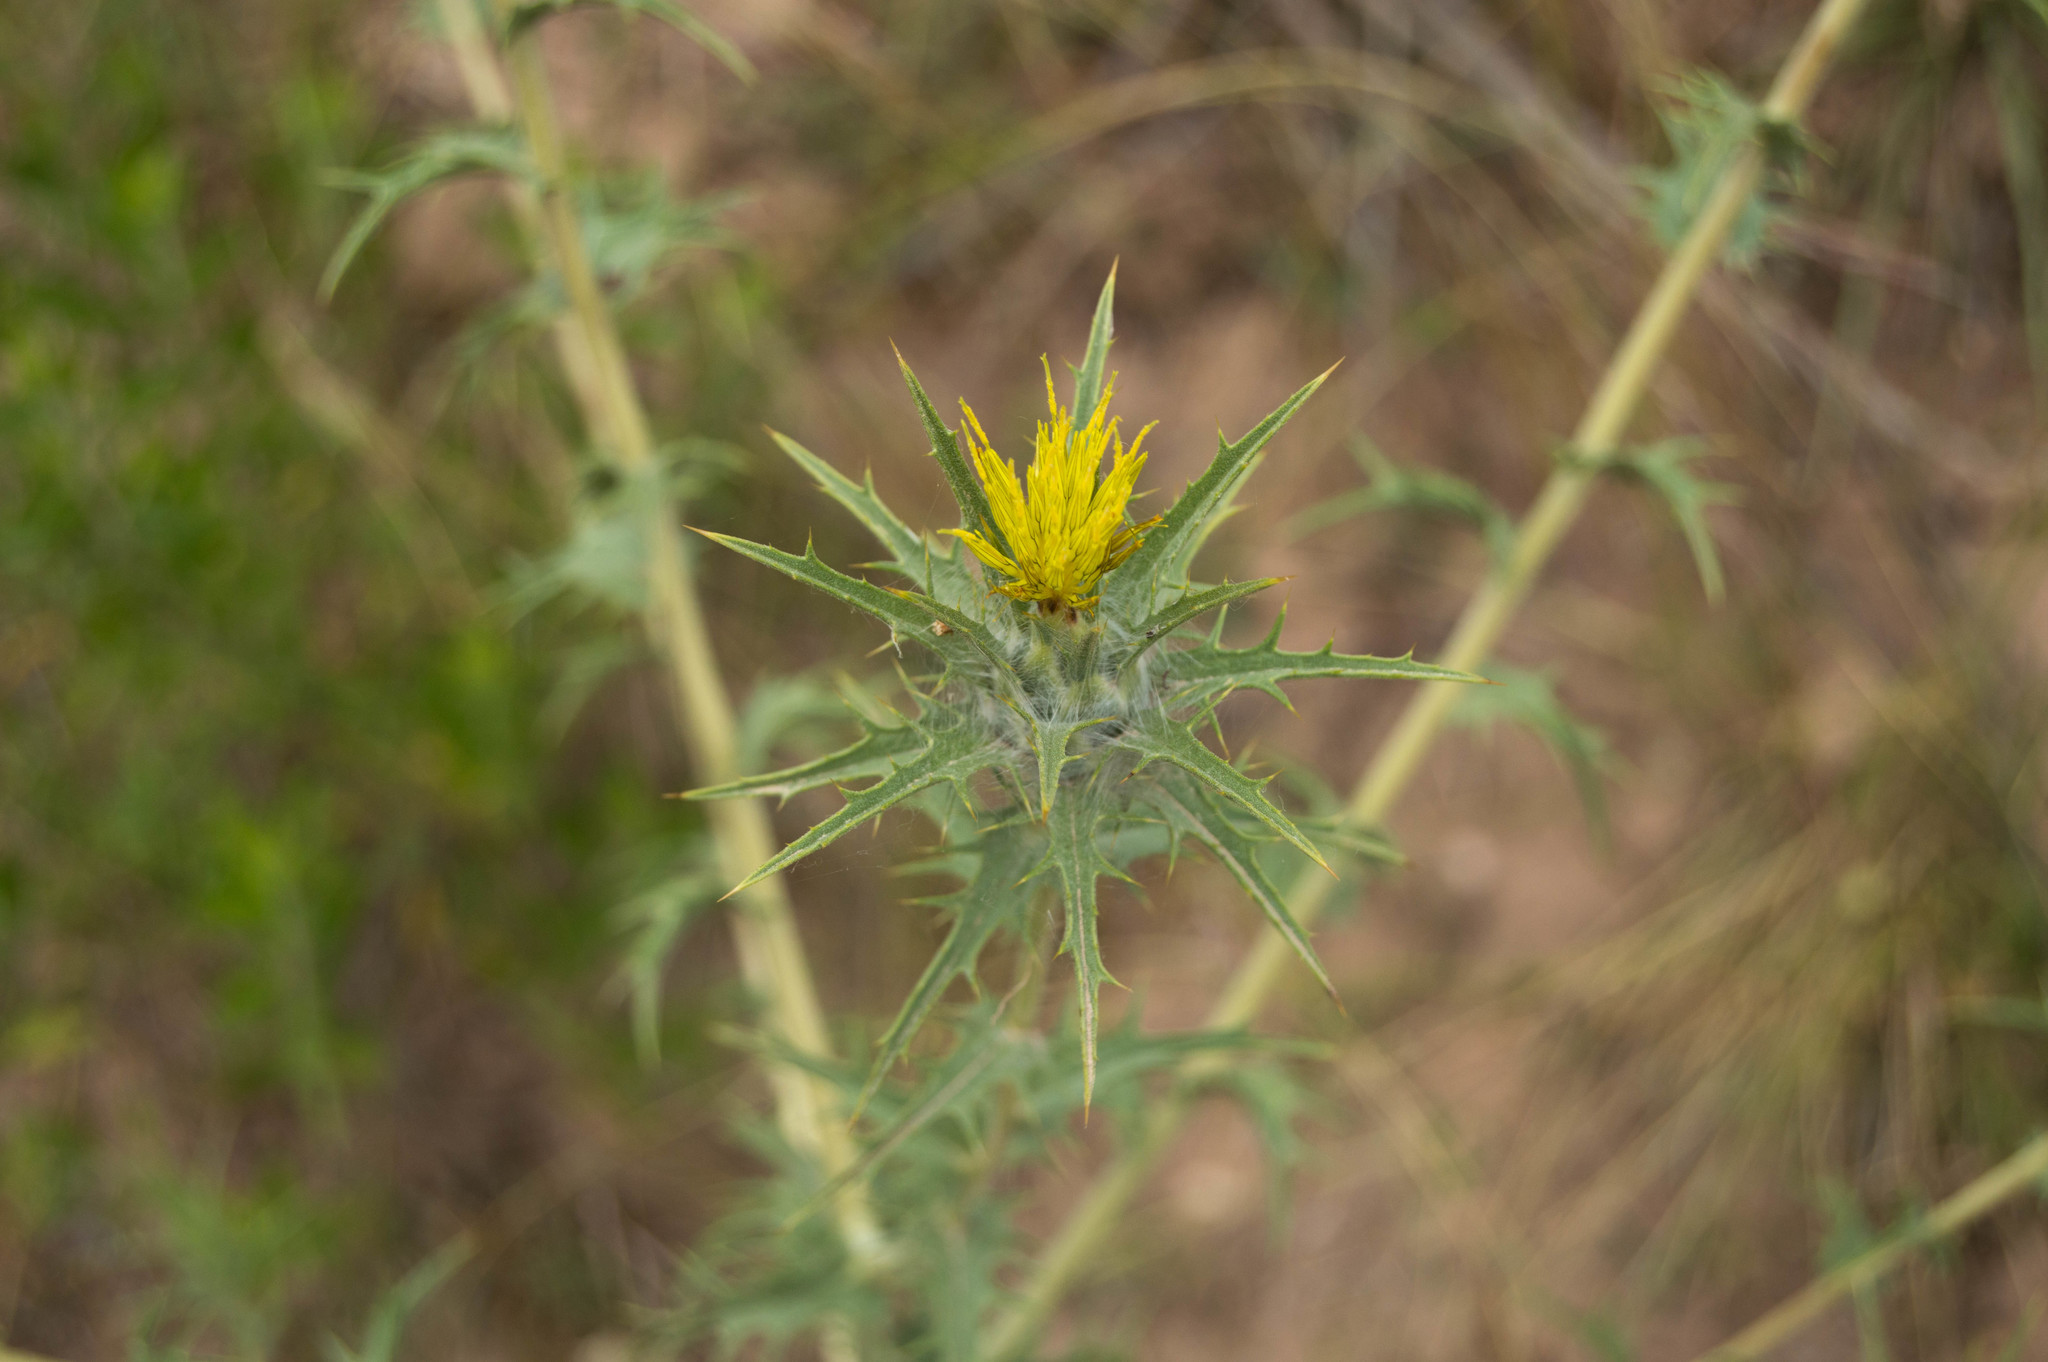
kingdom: Plantae
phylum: Tracheophyta
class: Magnoliopsida
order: Asterales
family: Asteraceae
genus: Carthamus
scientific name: Carthamus lanatus
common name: Downy safflower
